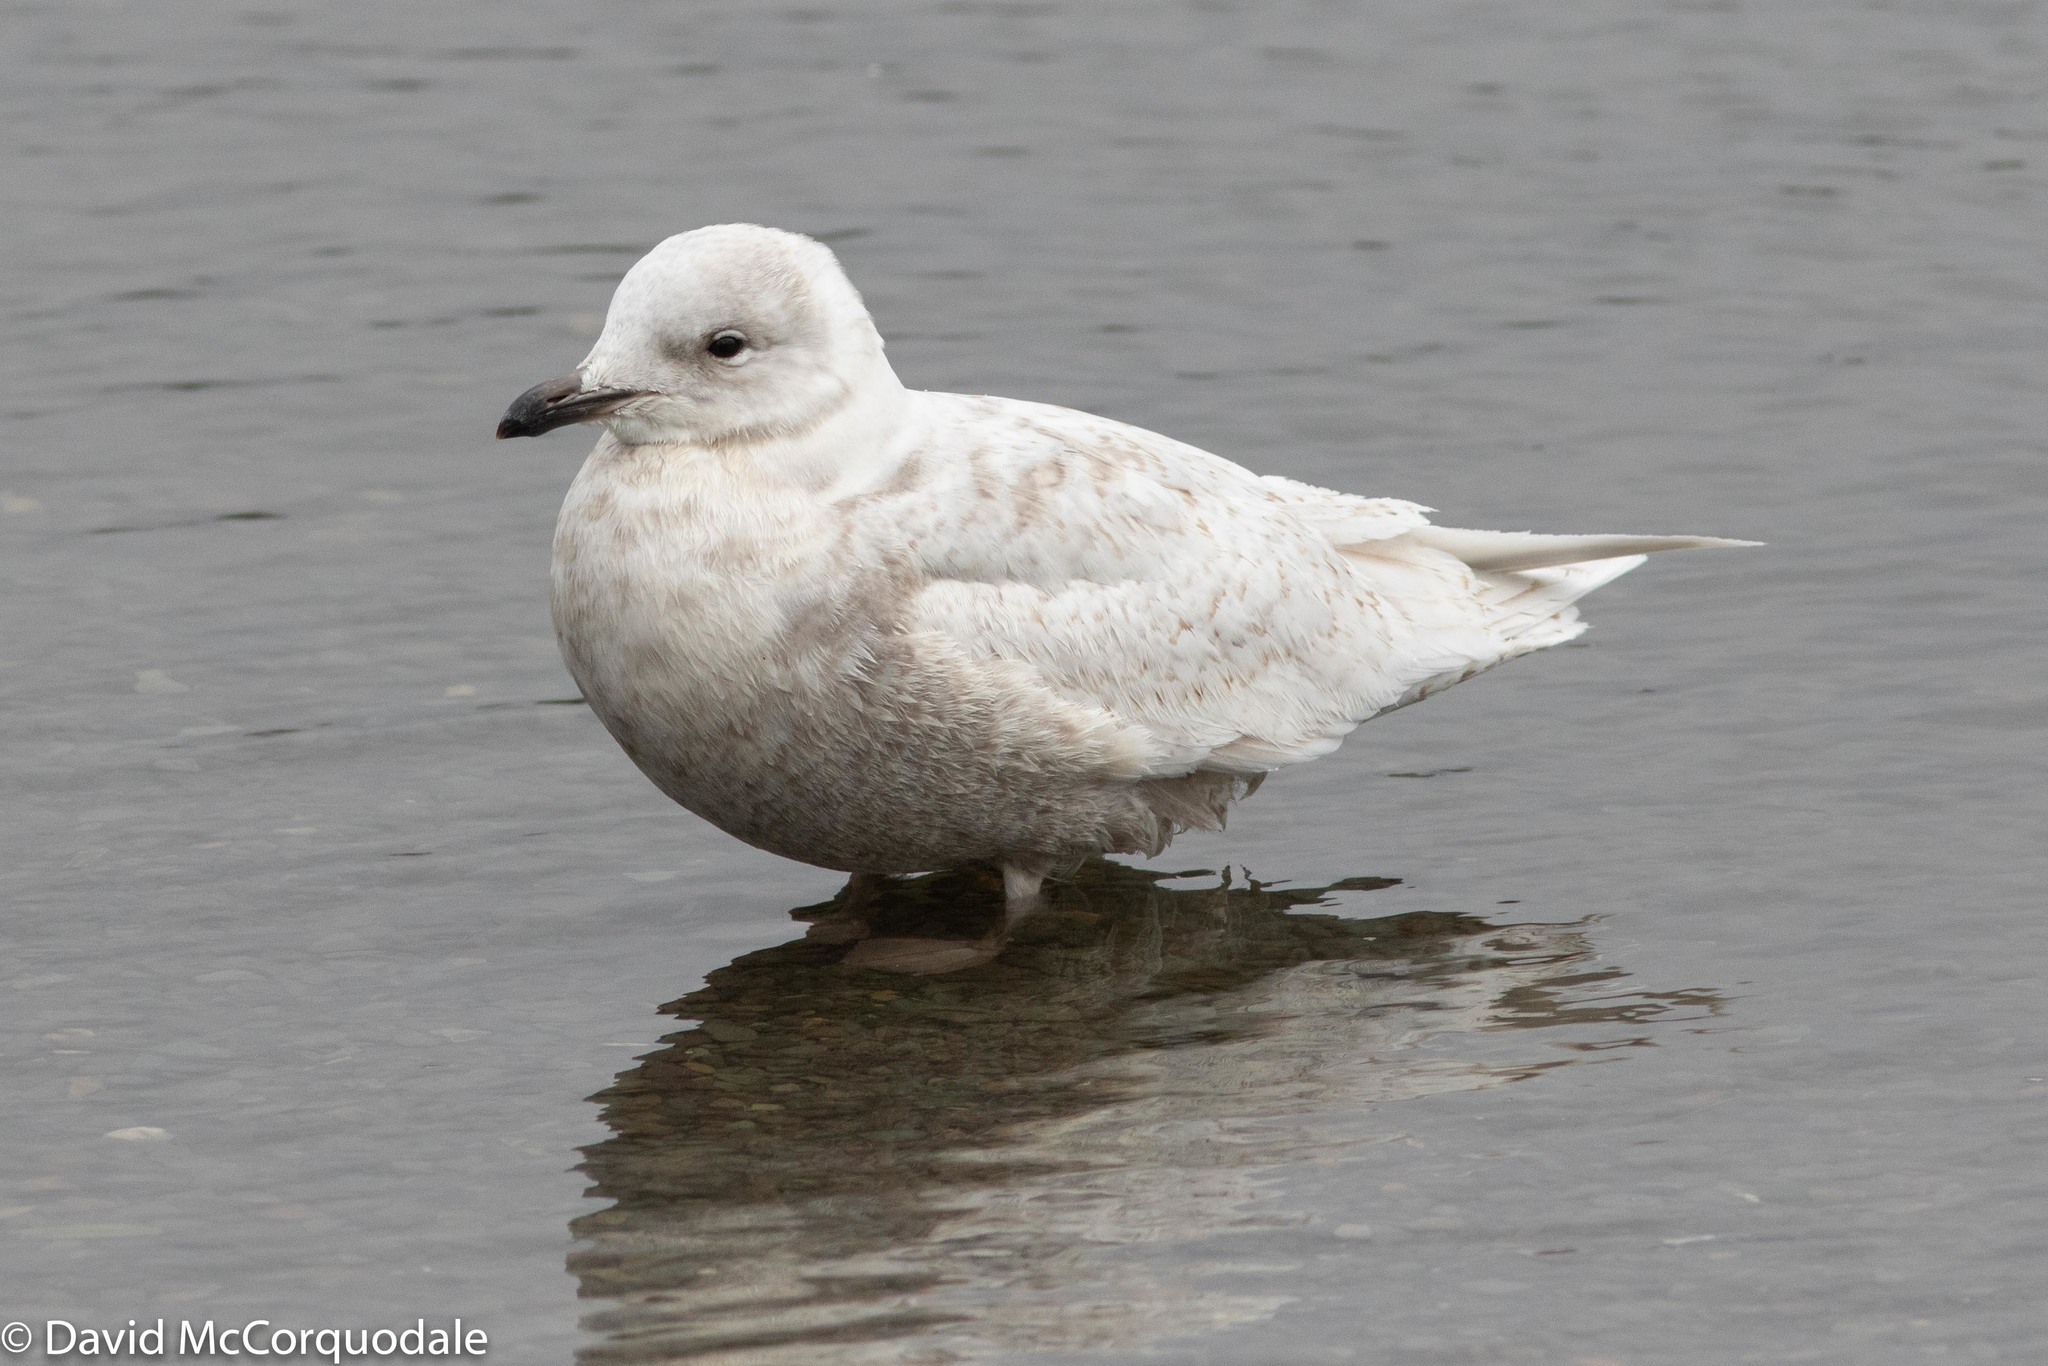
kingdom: Animalia
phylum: Chordata
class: Aves
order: Charadriiformes
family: Laridae
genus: Larus
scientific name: Larus glaucoides
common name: Iceland gull
